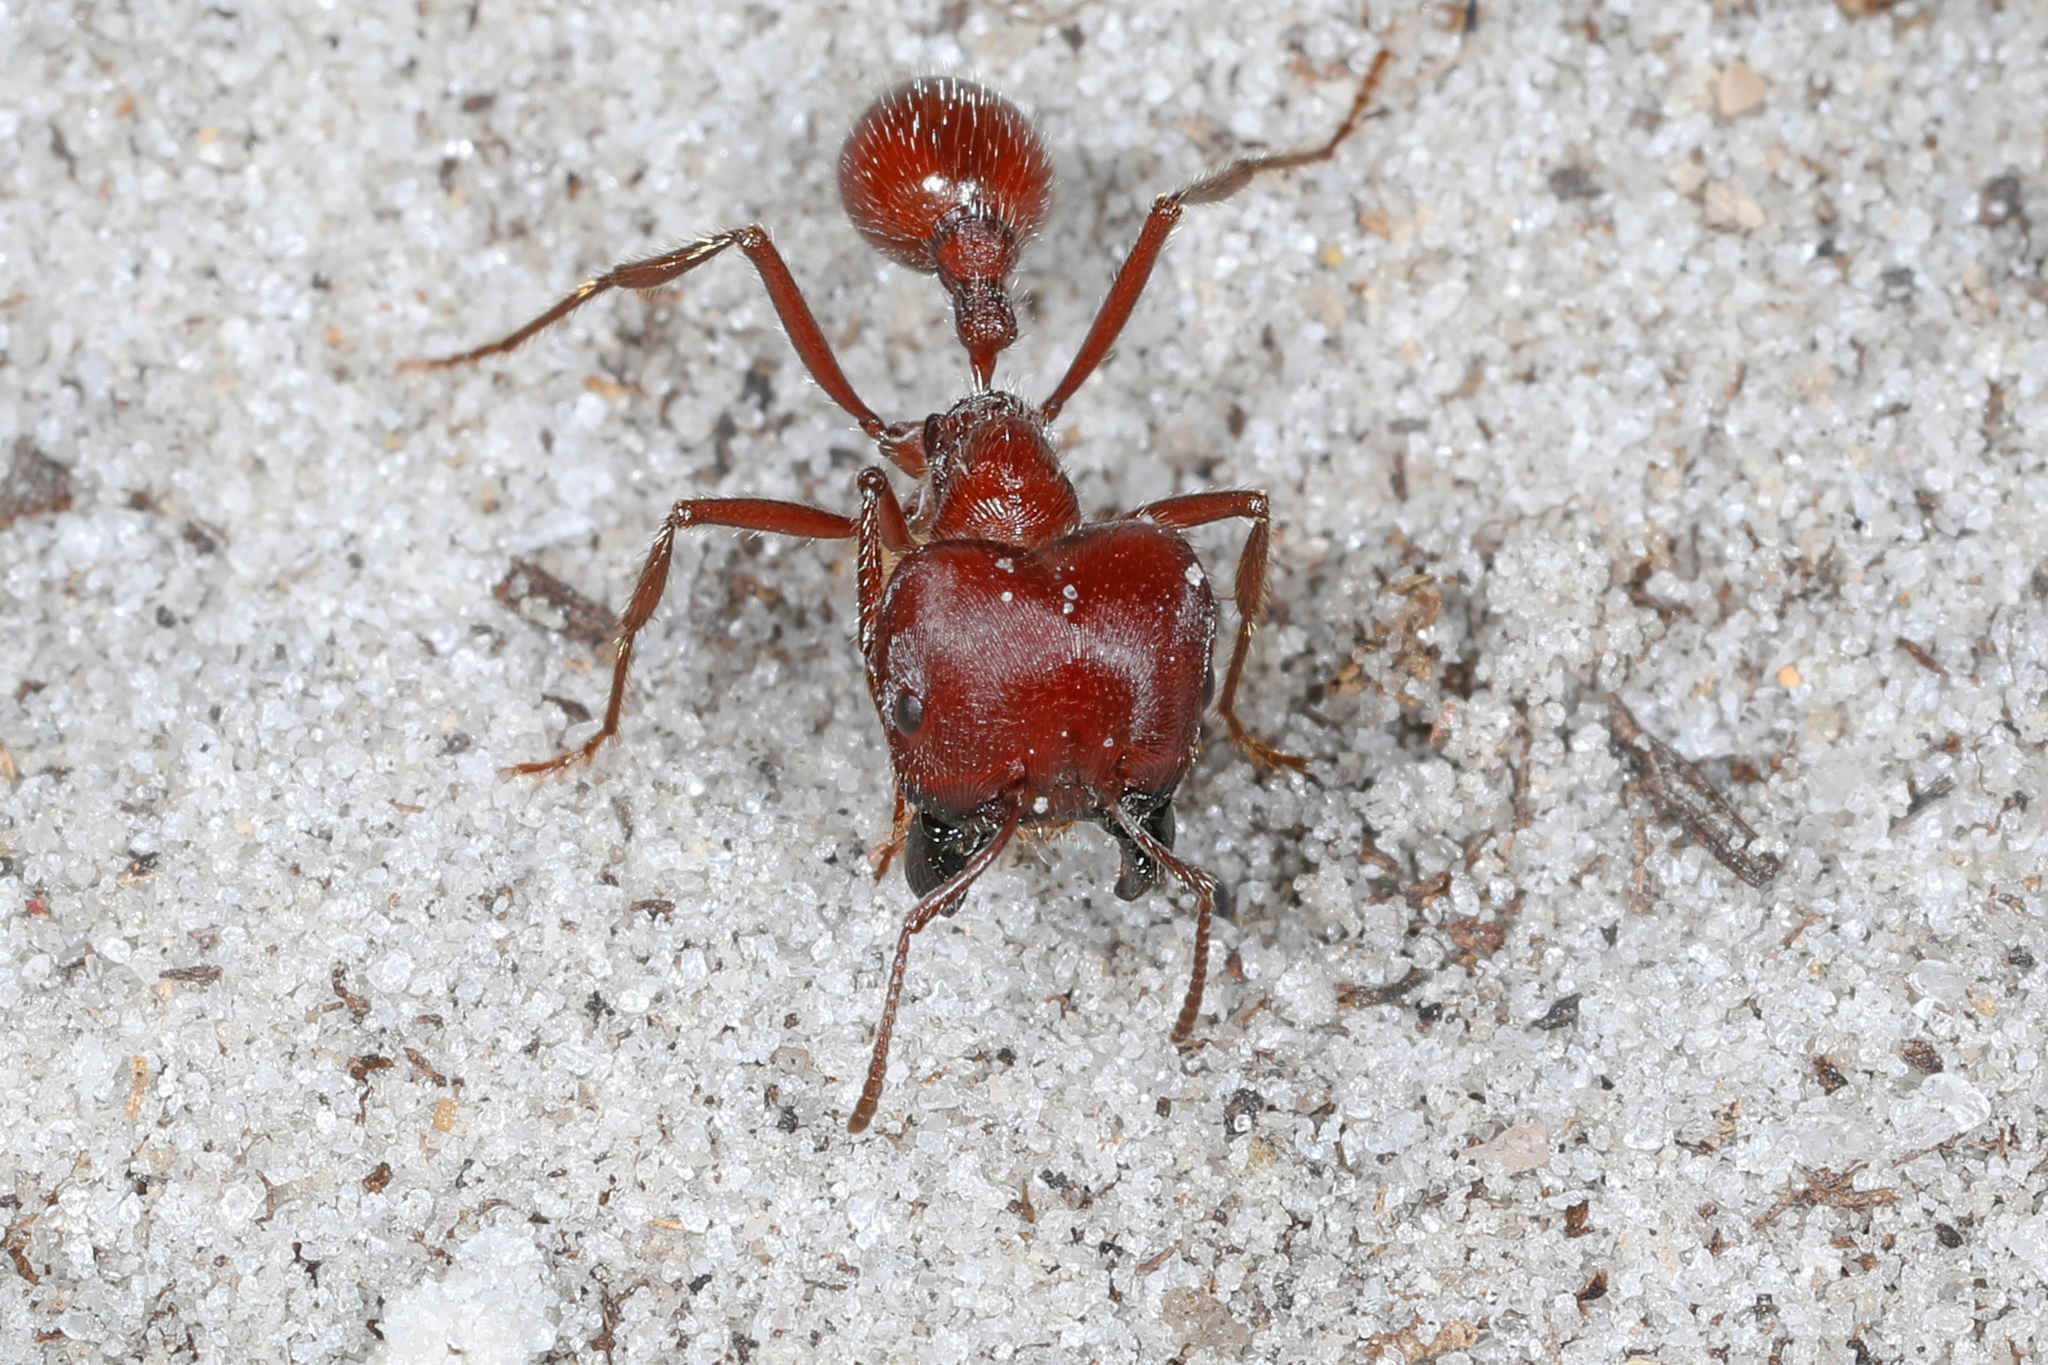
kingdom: Animalia
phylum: Arthropoda
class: Insecta
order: Hymenoptera
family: Formicidae
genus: Pogonomyrmex
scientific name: Pogonomyrmex badius
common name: Florida harvester ant
